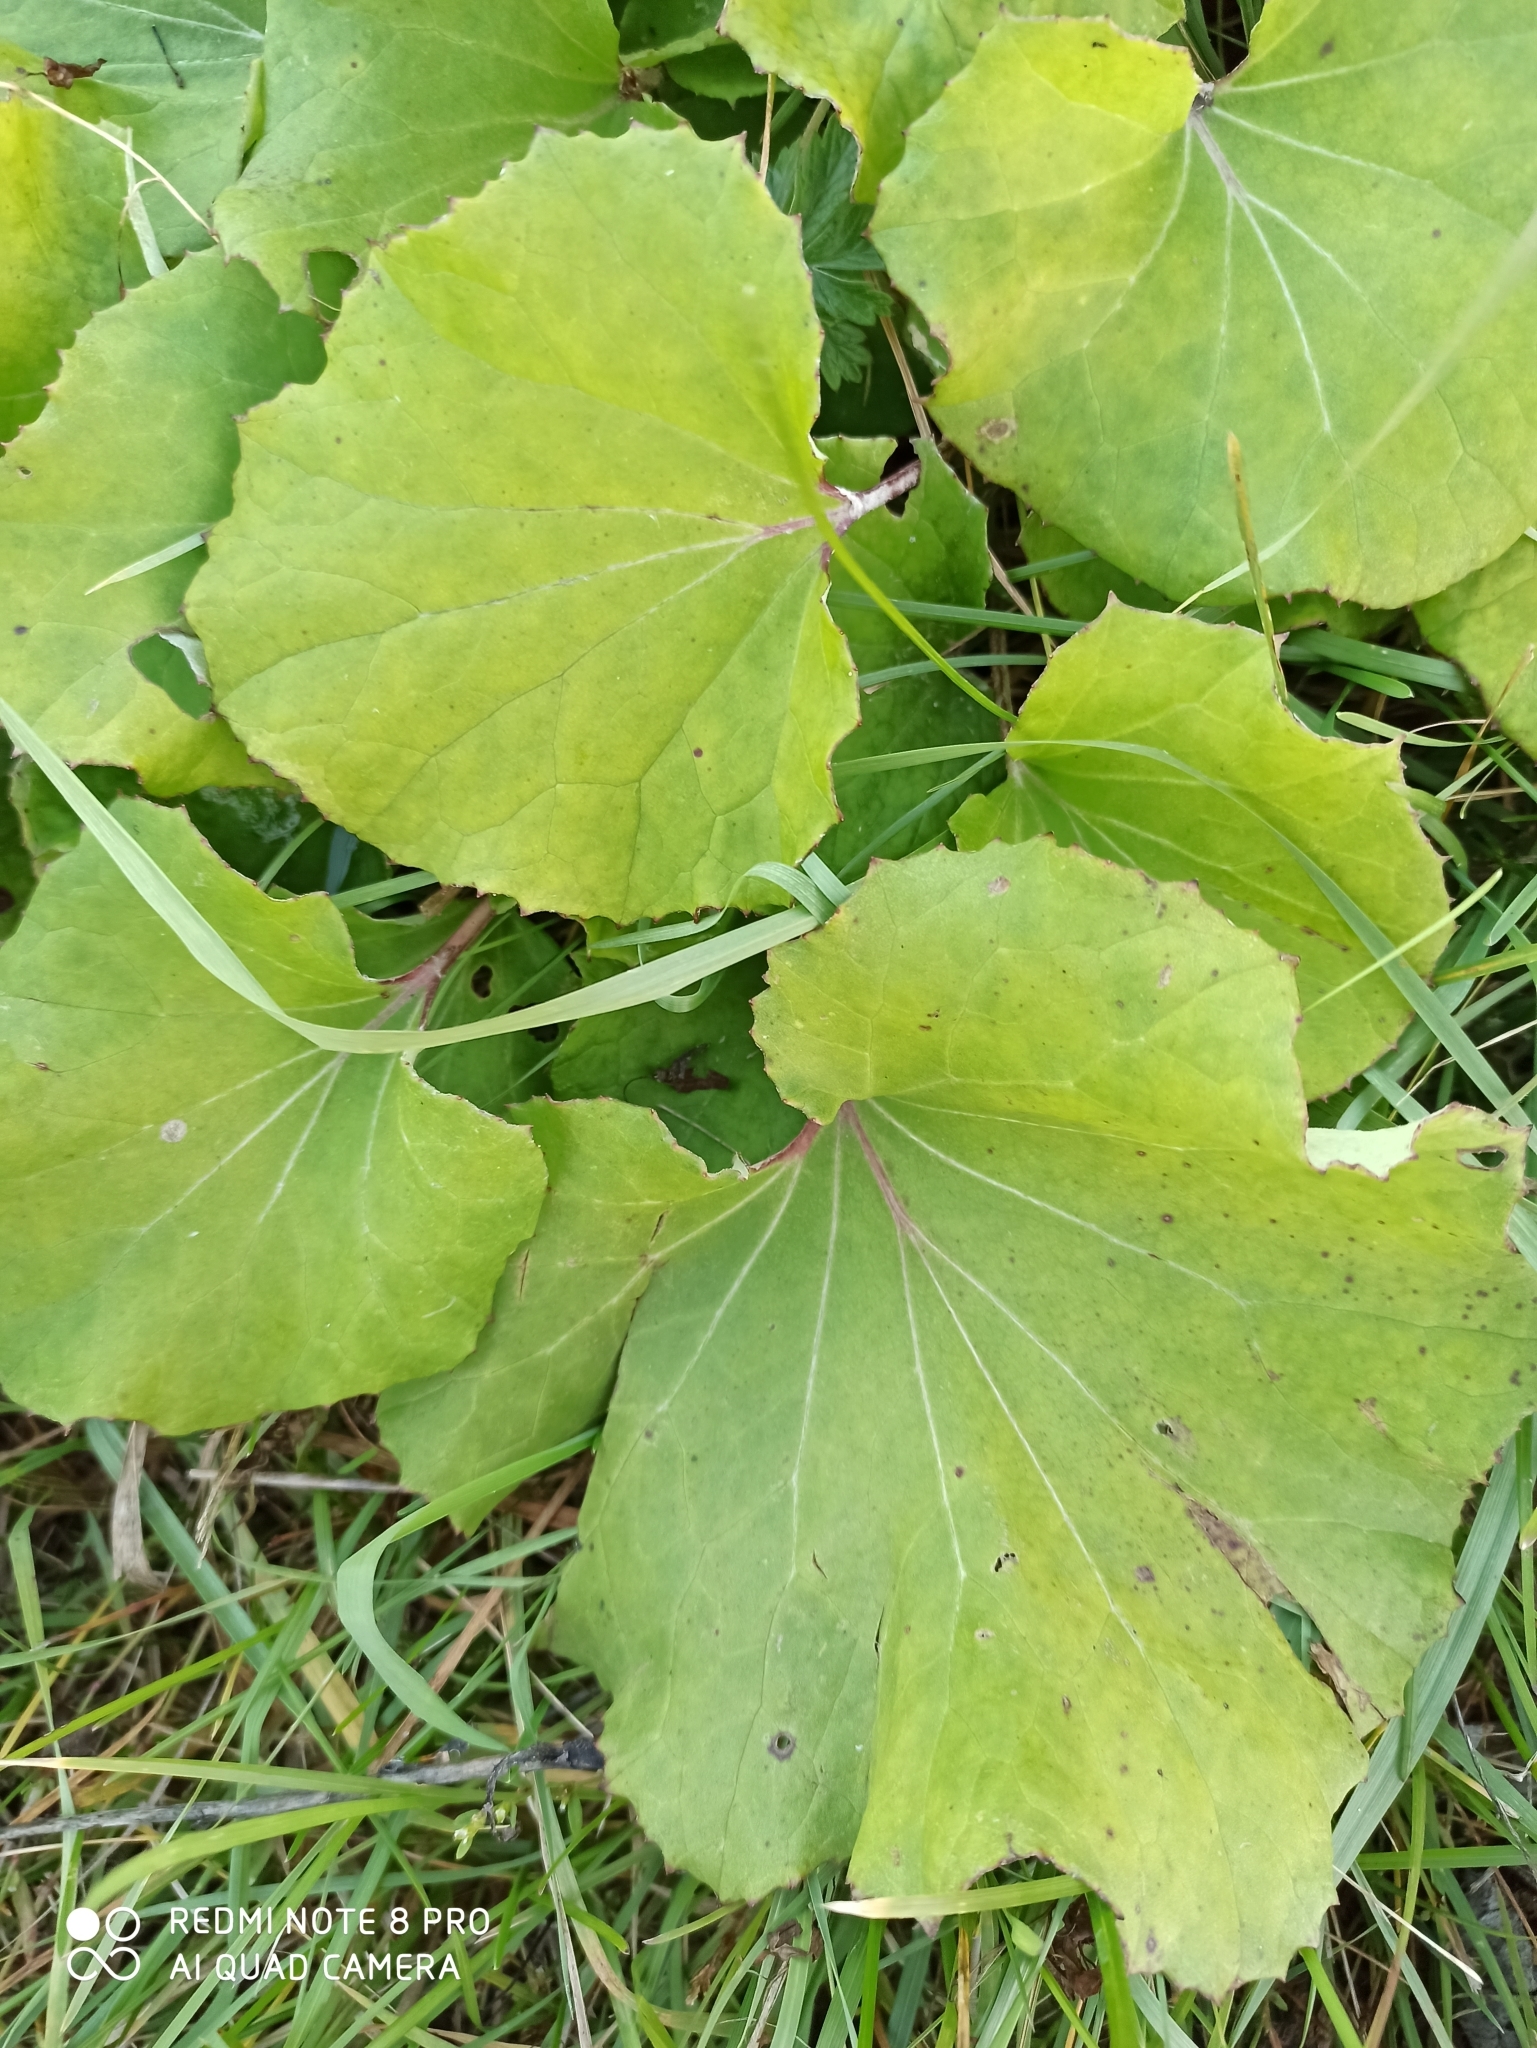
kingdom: Plantae
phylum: Tracheophyta
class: Magnoliopsida
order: Asterales
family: Asteraceae
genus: Tussilago
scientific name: Tussilago farfara
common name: Coltsfoot
